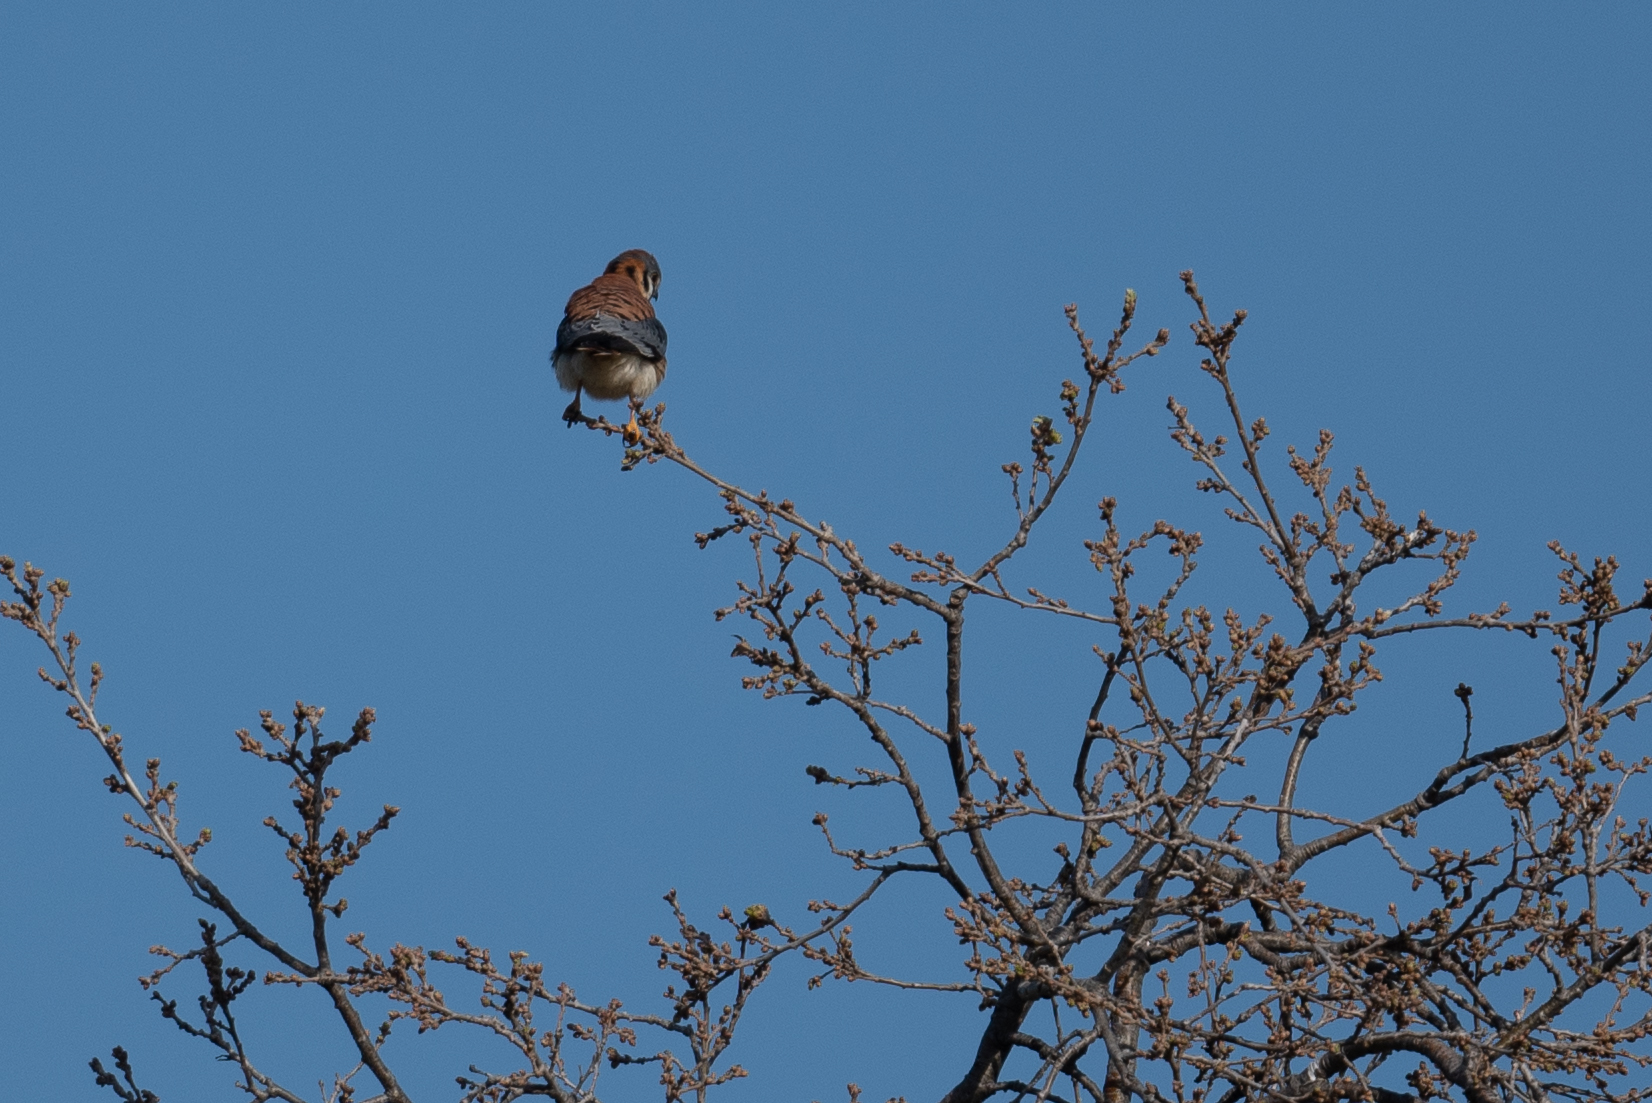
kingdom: Animalia
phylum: Chordata
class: Aves
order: Falconiformes
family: Falconidae
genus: Falco
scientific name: Falco sparverius
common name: American kestrel
